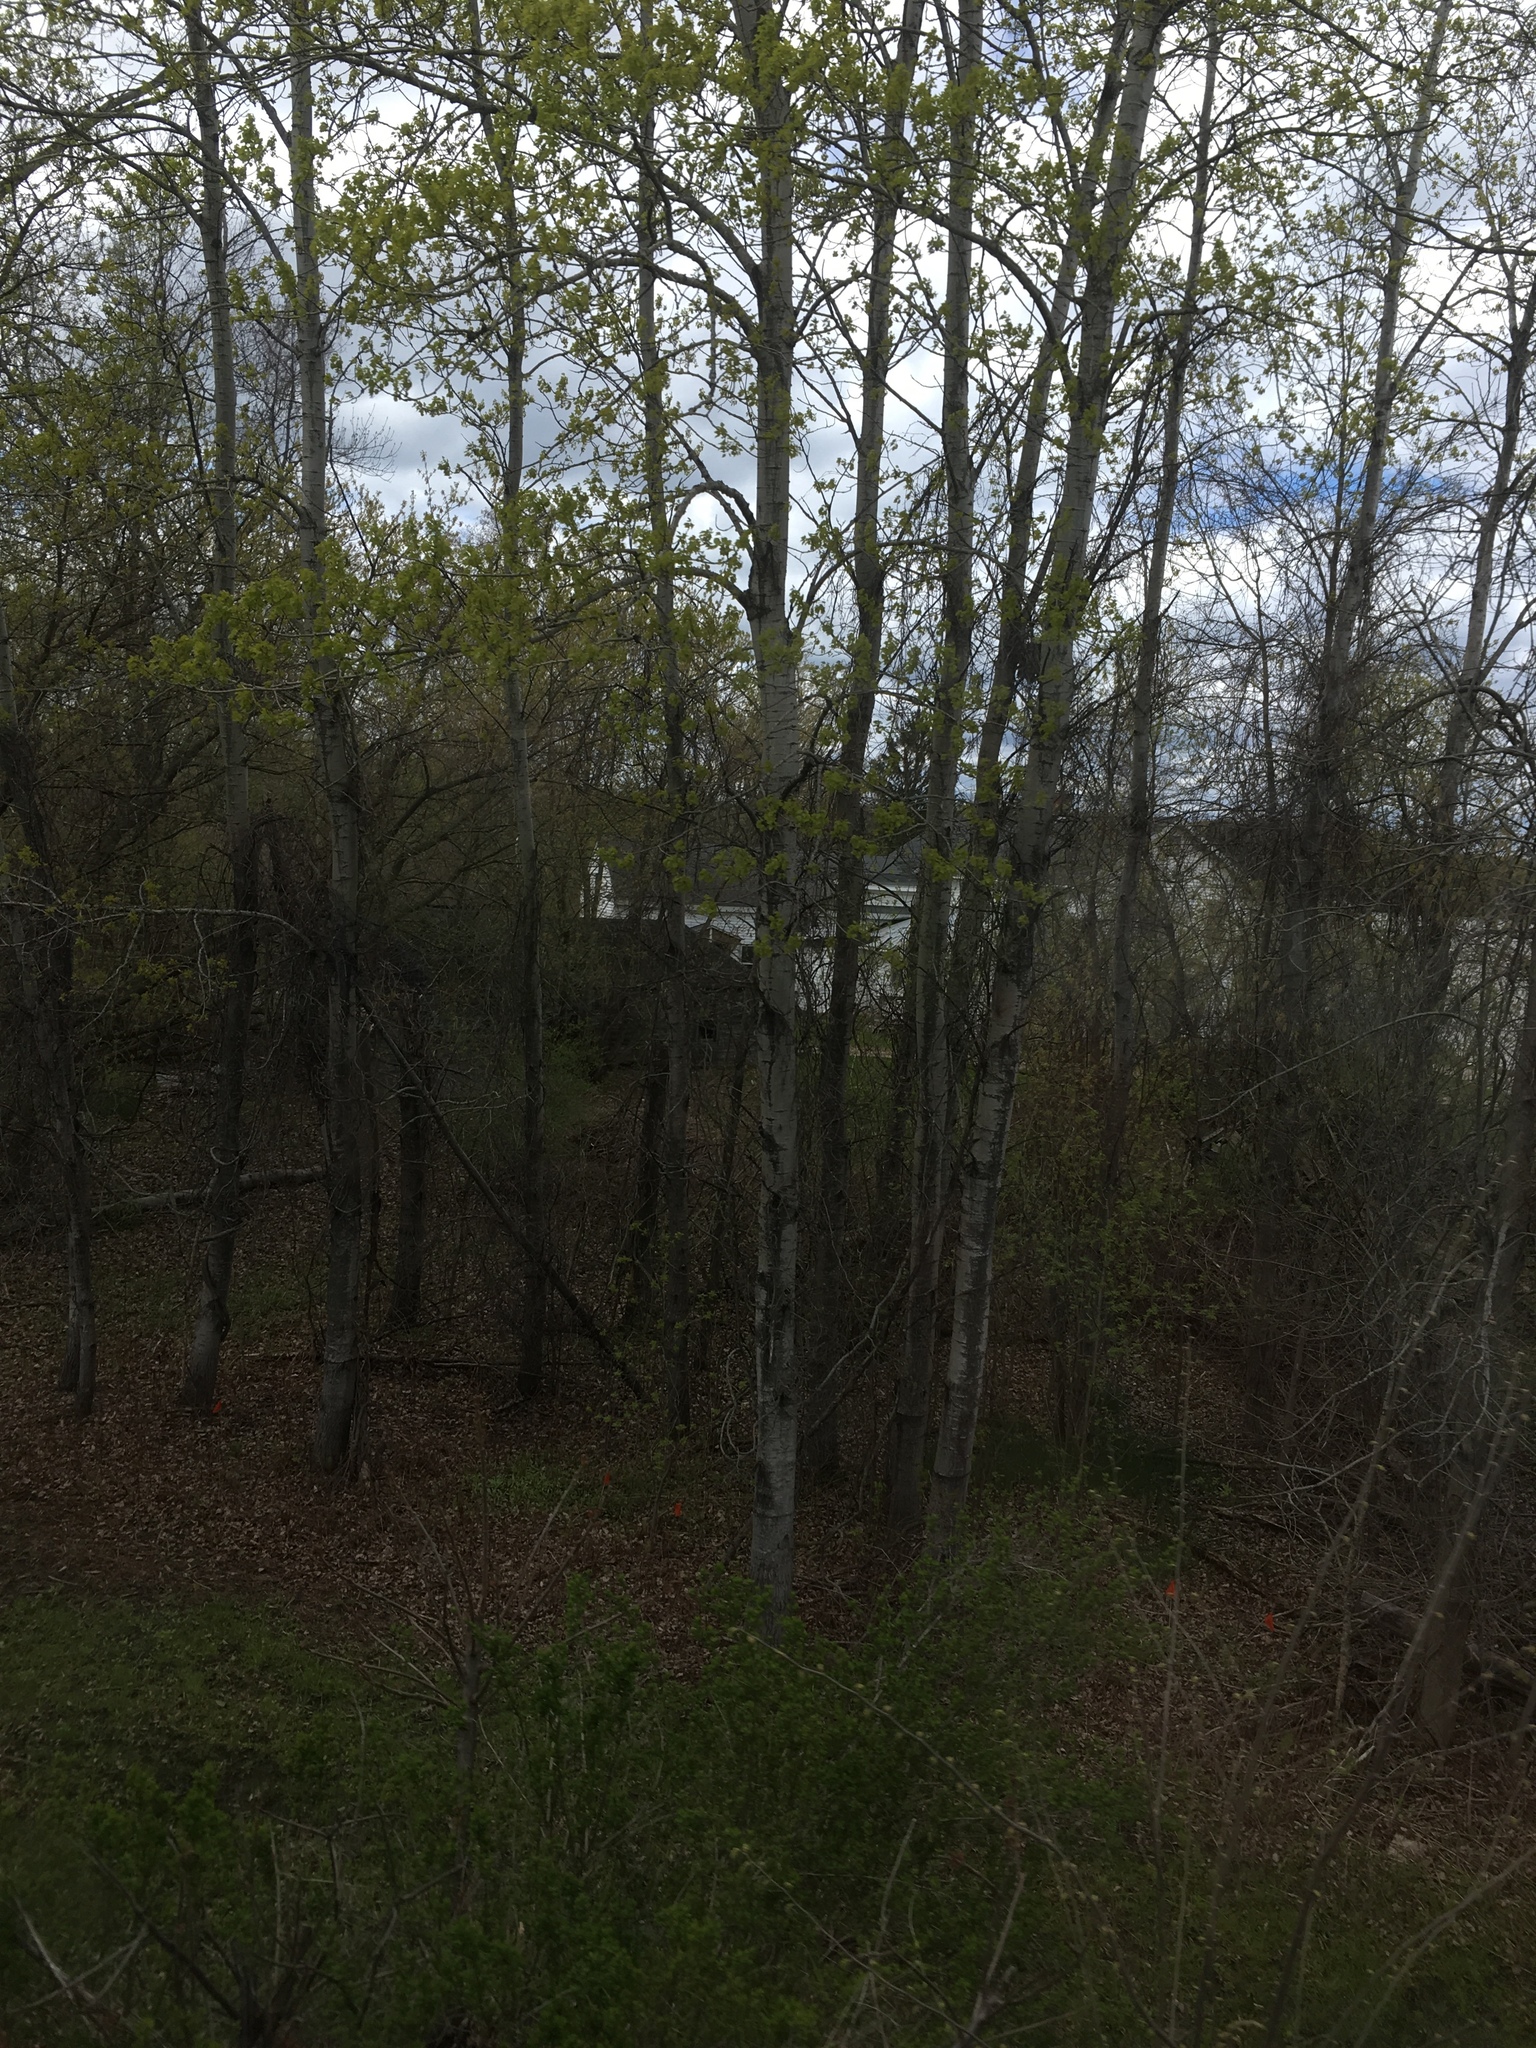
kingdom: Plantae
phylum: Tracheophyta
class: Magnoliopsida
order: Malpighiales
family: Salicaceae
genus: Populus
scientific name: Populus tremuloides
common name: Quaking aspen
